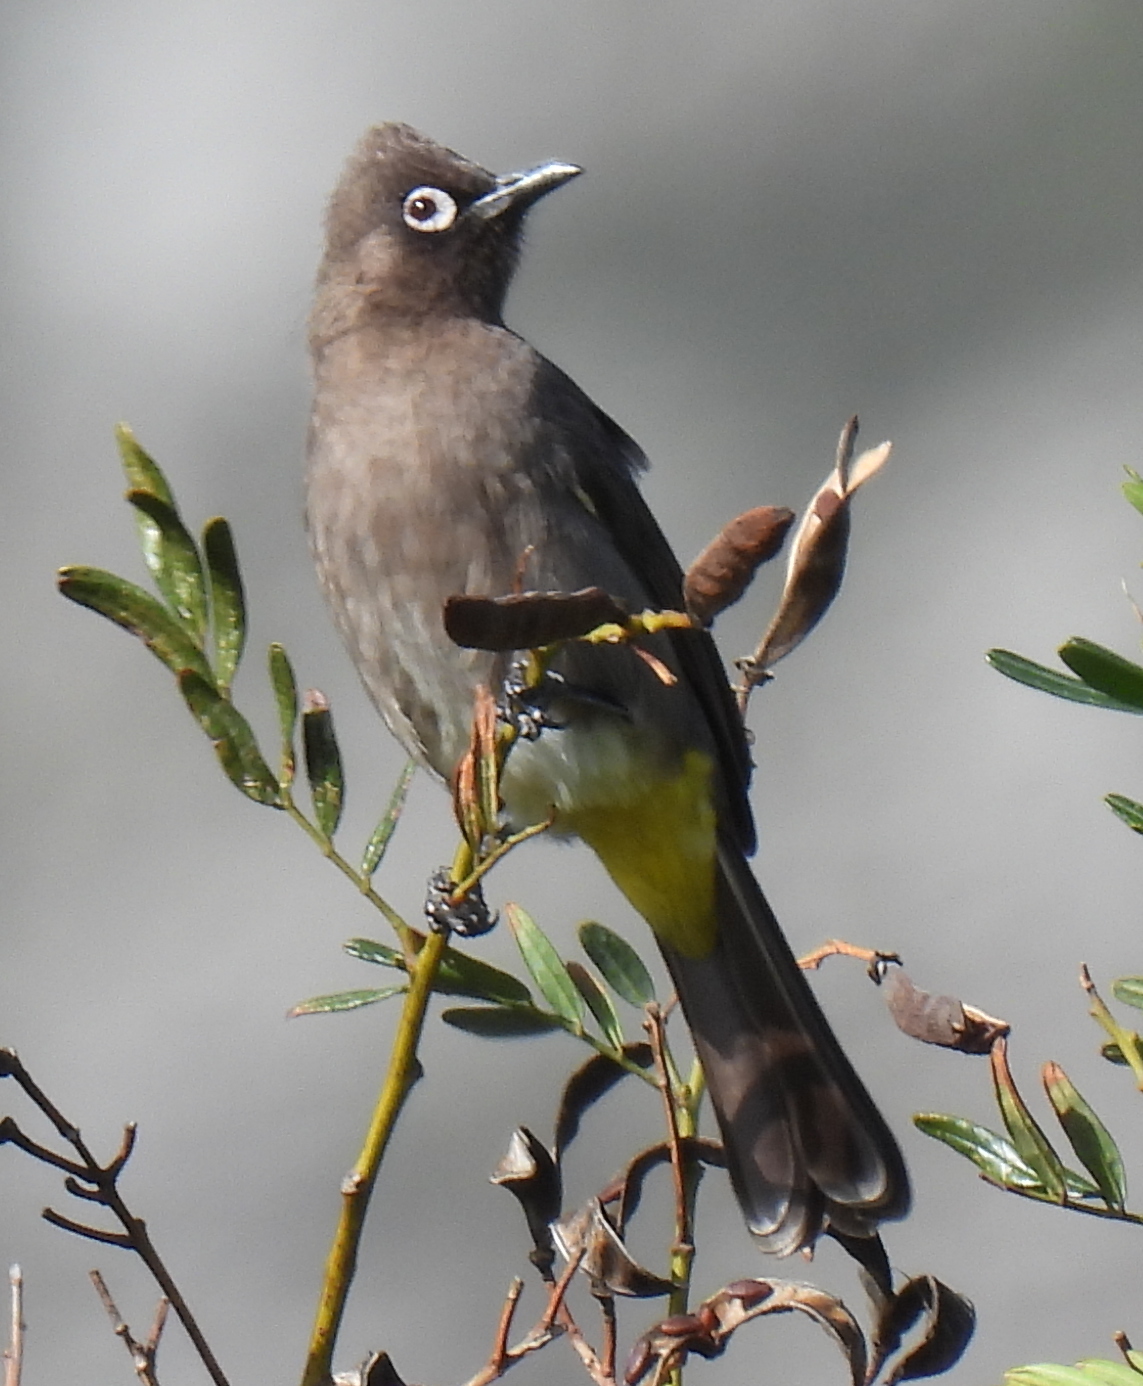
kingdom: Animalia
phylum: Chordata
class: Aves
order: Passeriformes
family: Pycnonotidae
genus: Pycnonotus
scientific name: Pycnonotus capensis
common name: Cape bulbul
